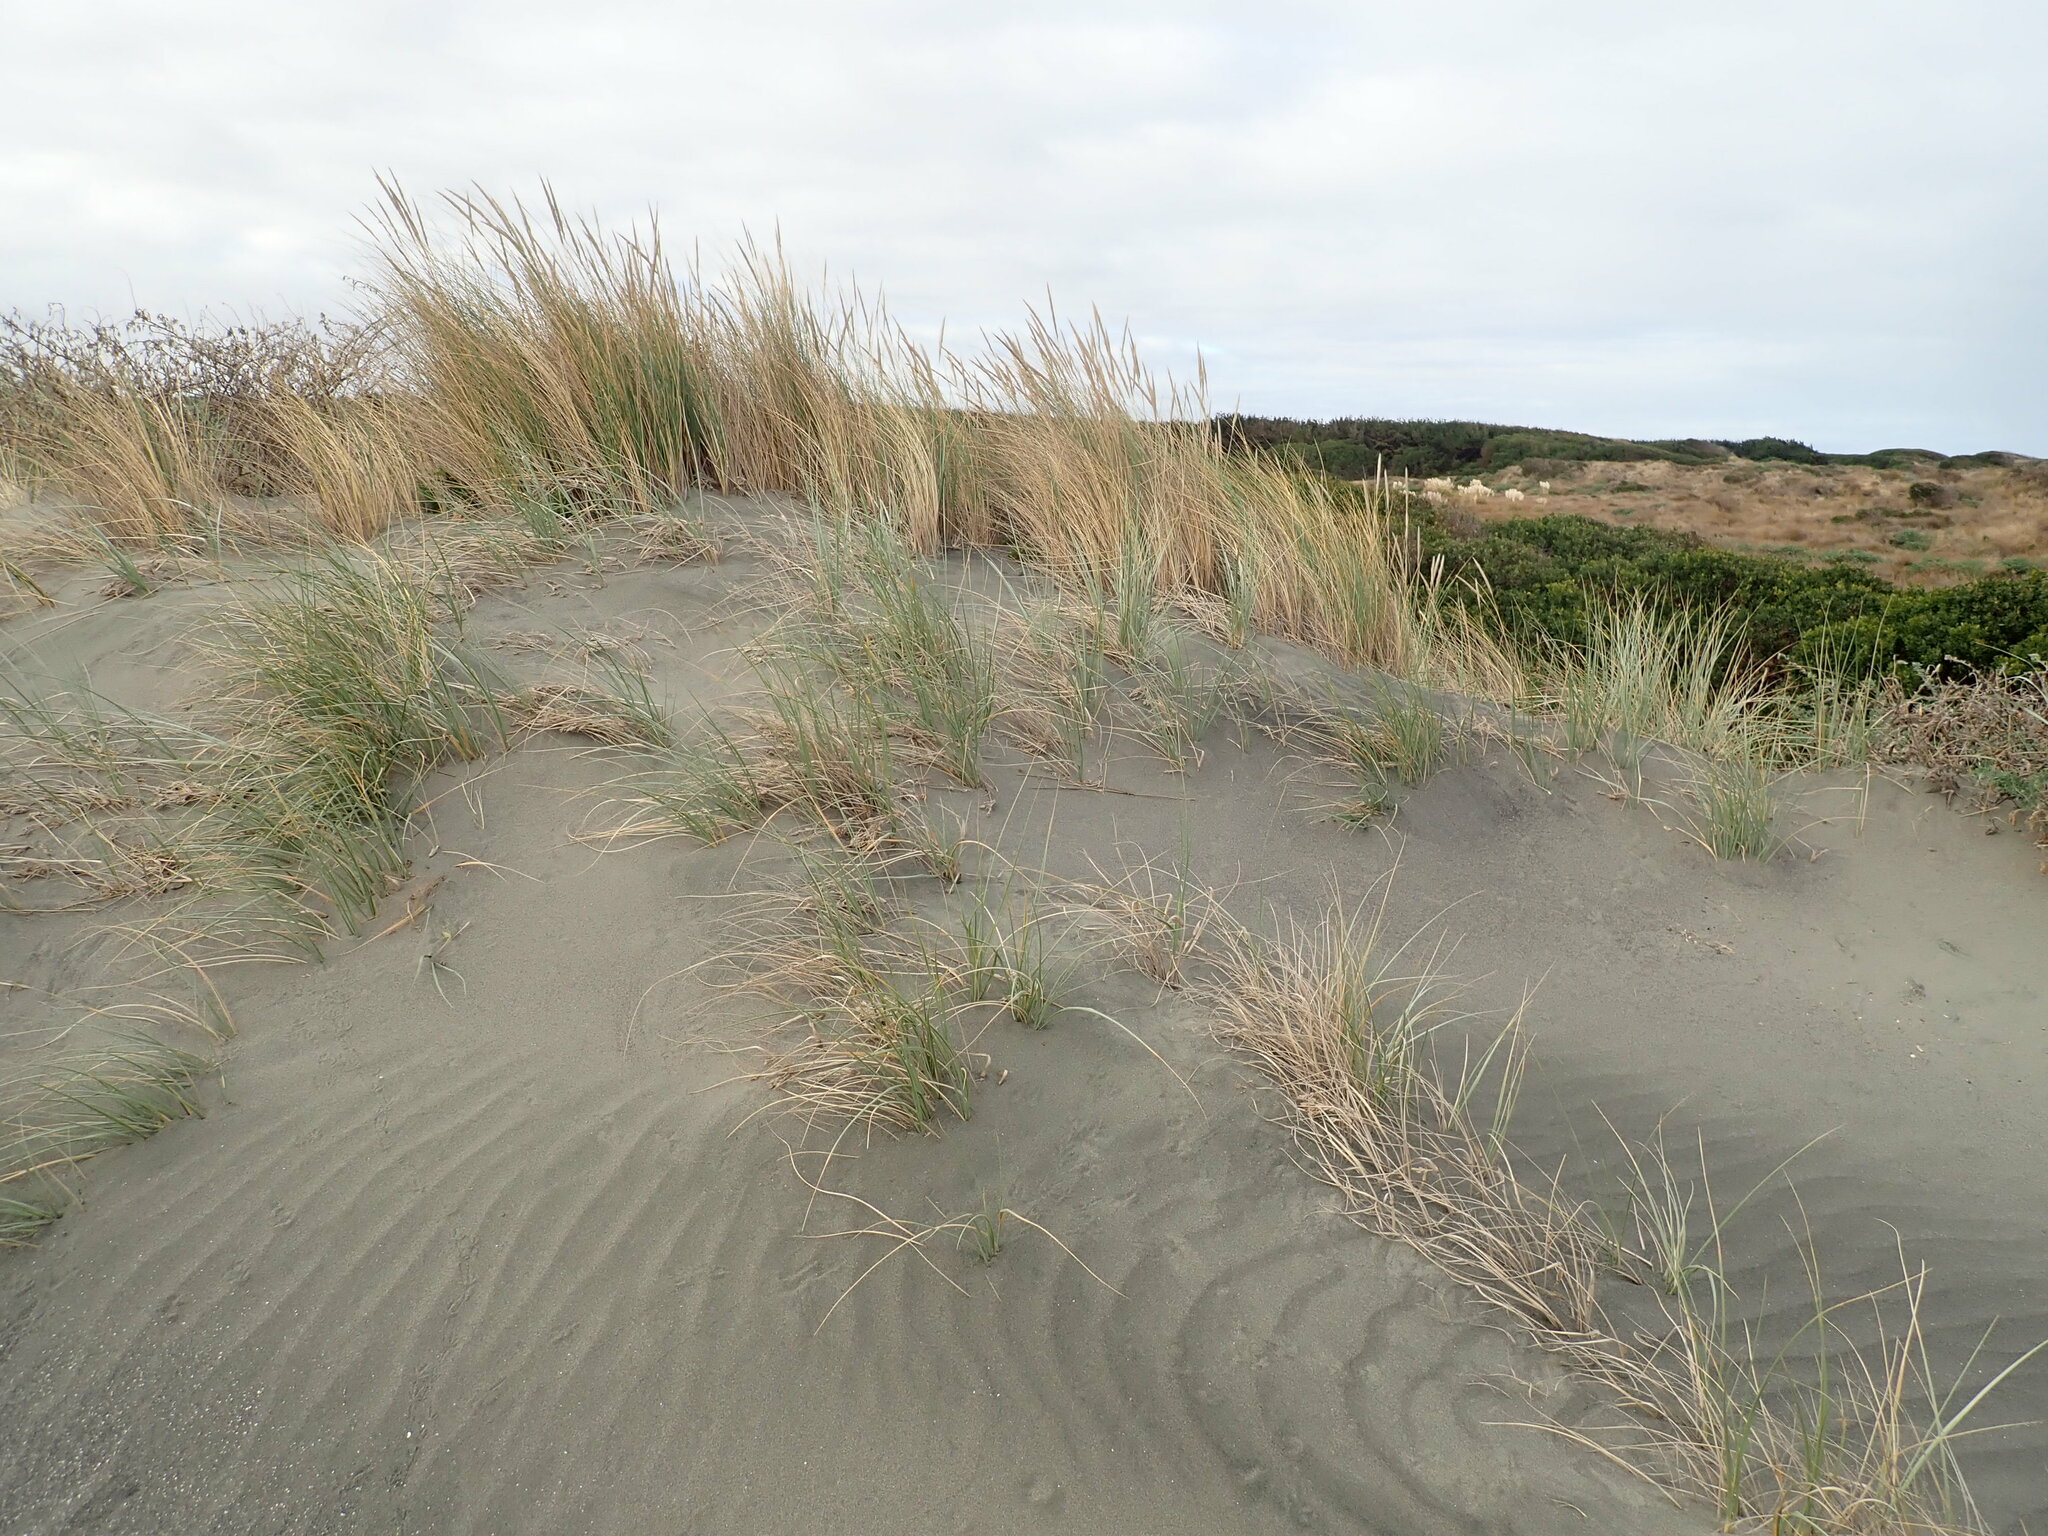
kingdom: Plantae
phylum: Tracheophyta
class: Liliopsida
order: Poales
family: Poaceae
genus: Calamagrostis
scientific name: Calamagrostis arenaria
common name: European beachgrass
